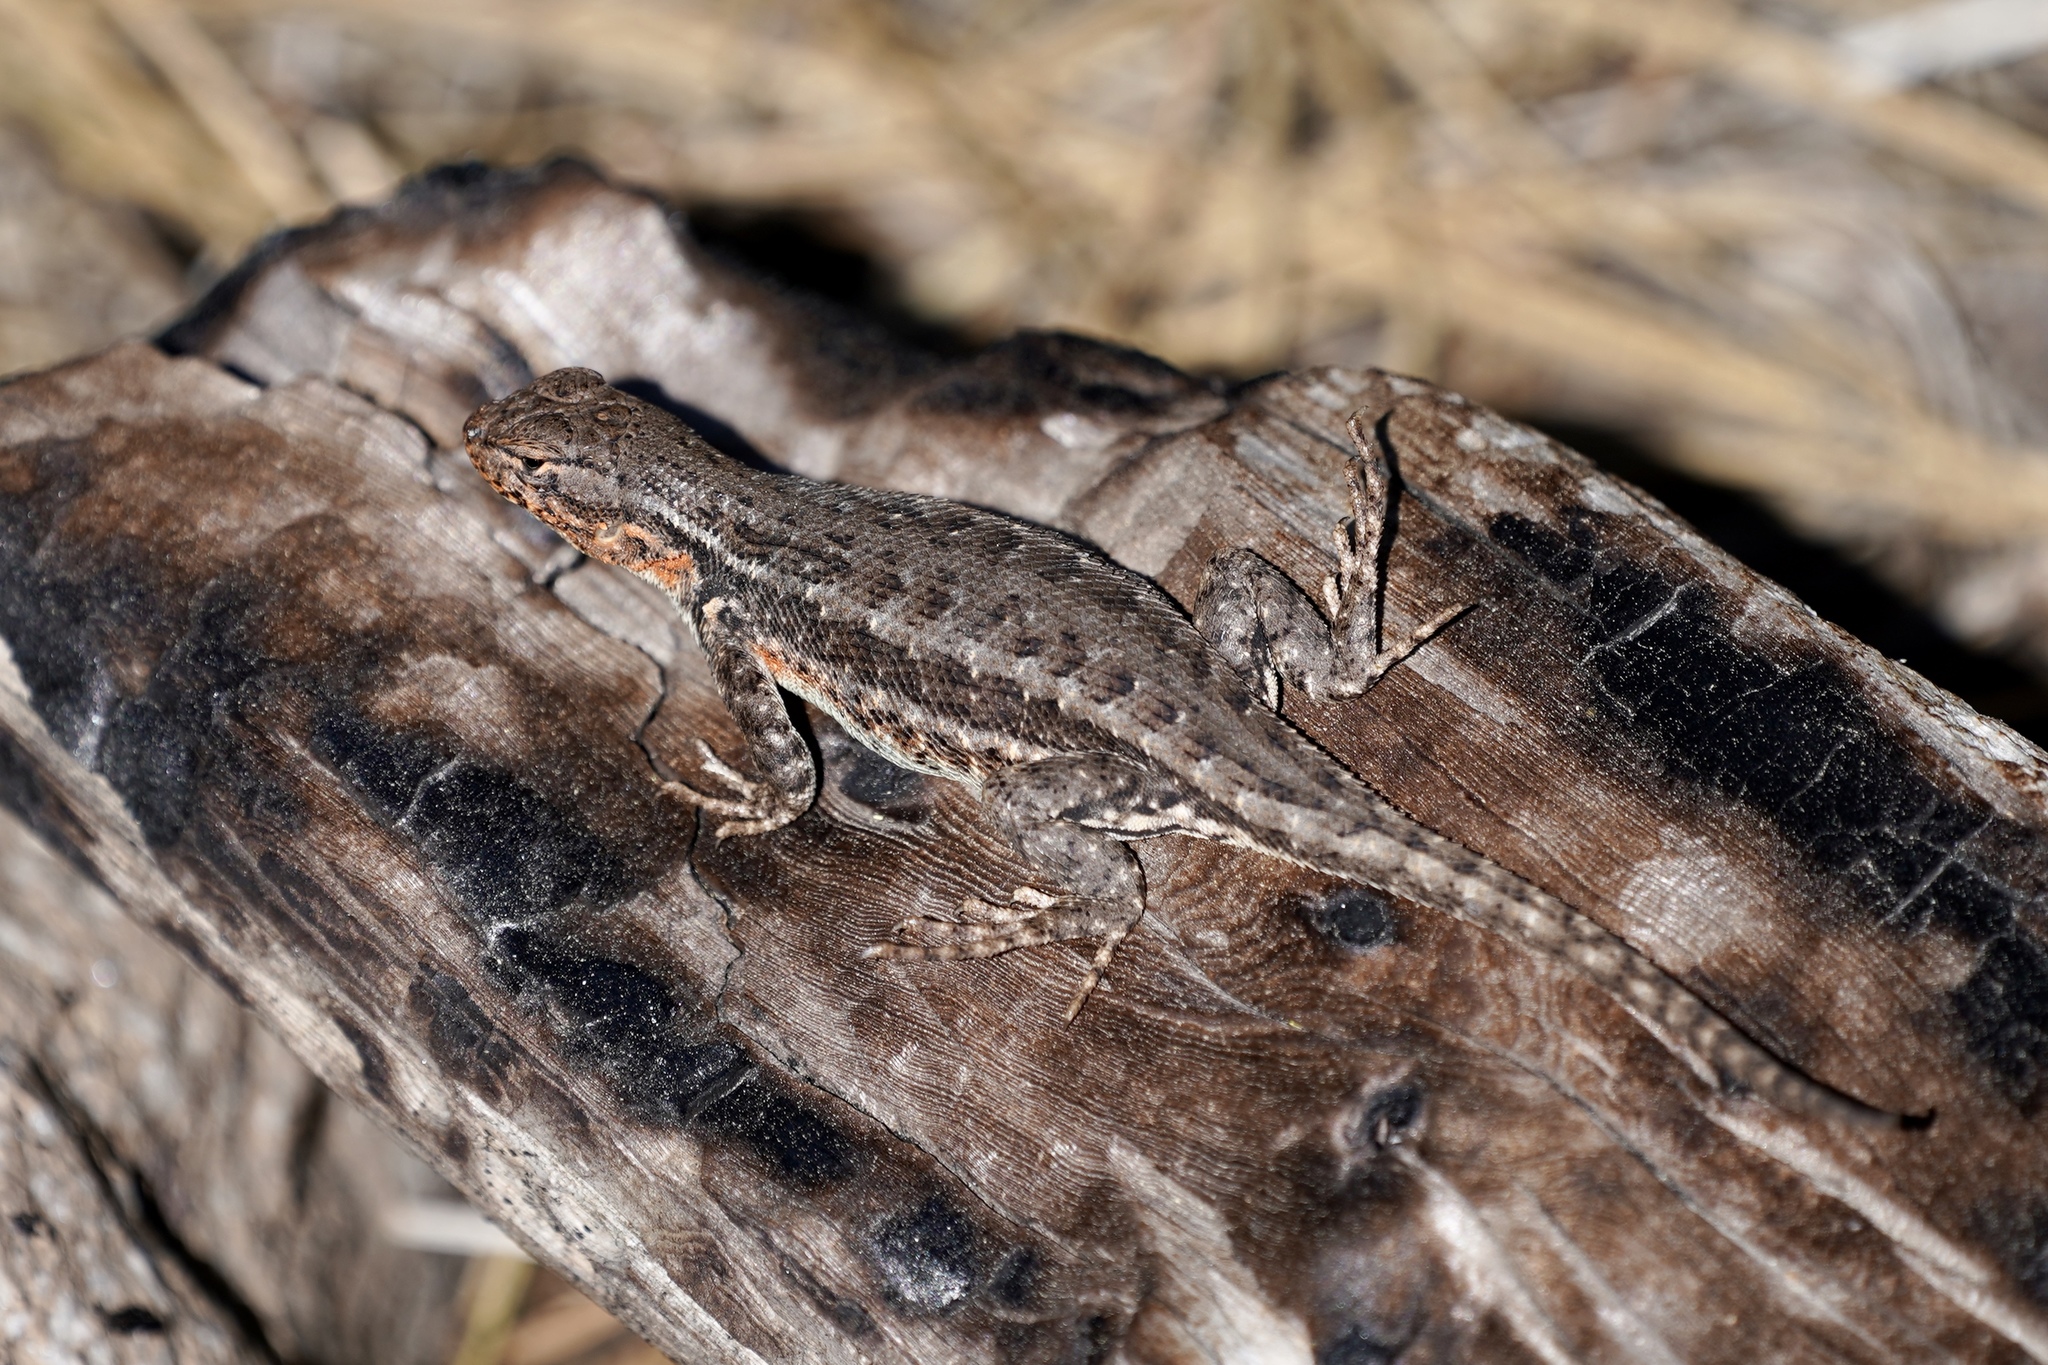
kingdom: Animalia
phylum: Chordata
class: Squamata
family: Phrynosomatidae
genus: Sceloporus
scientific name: Sceloporus graciosus
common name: Sagebrush lizard
